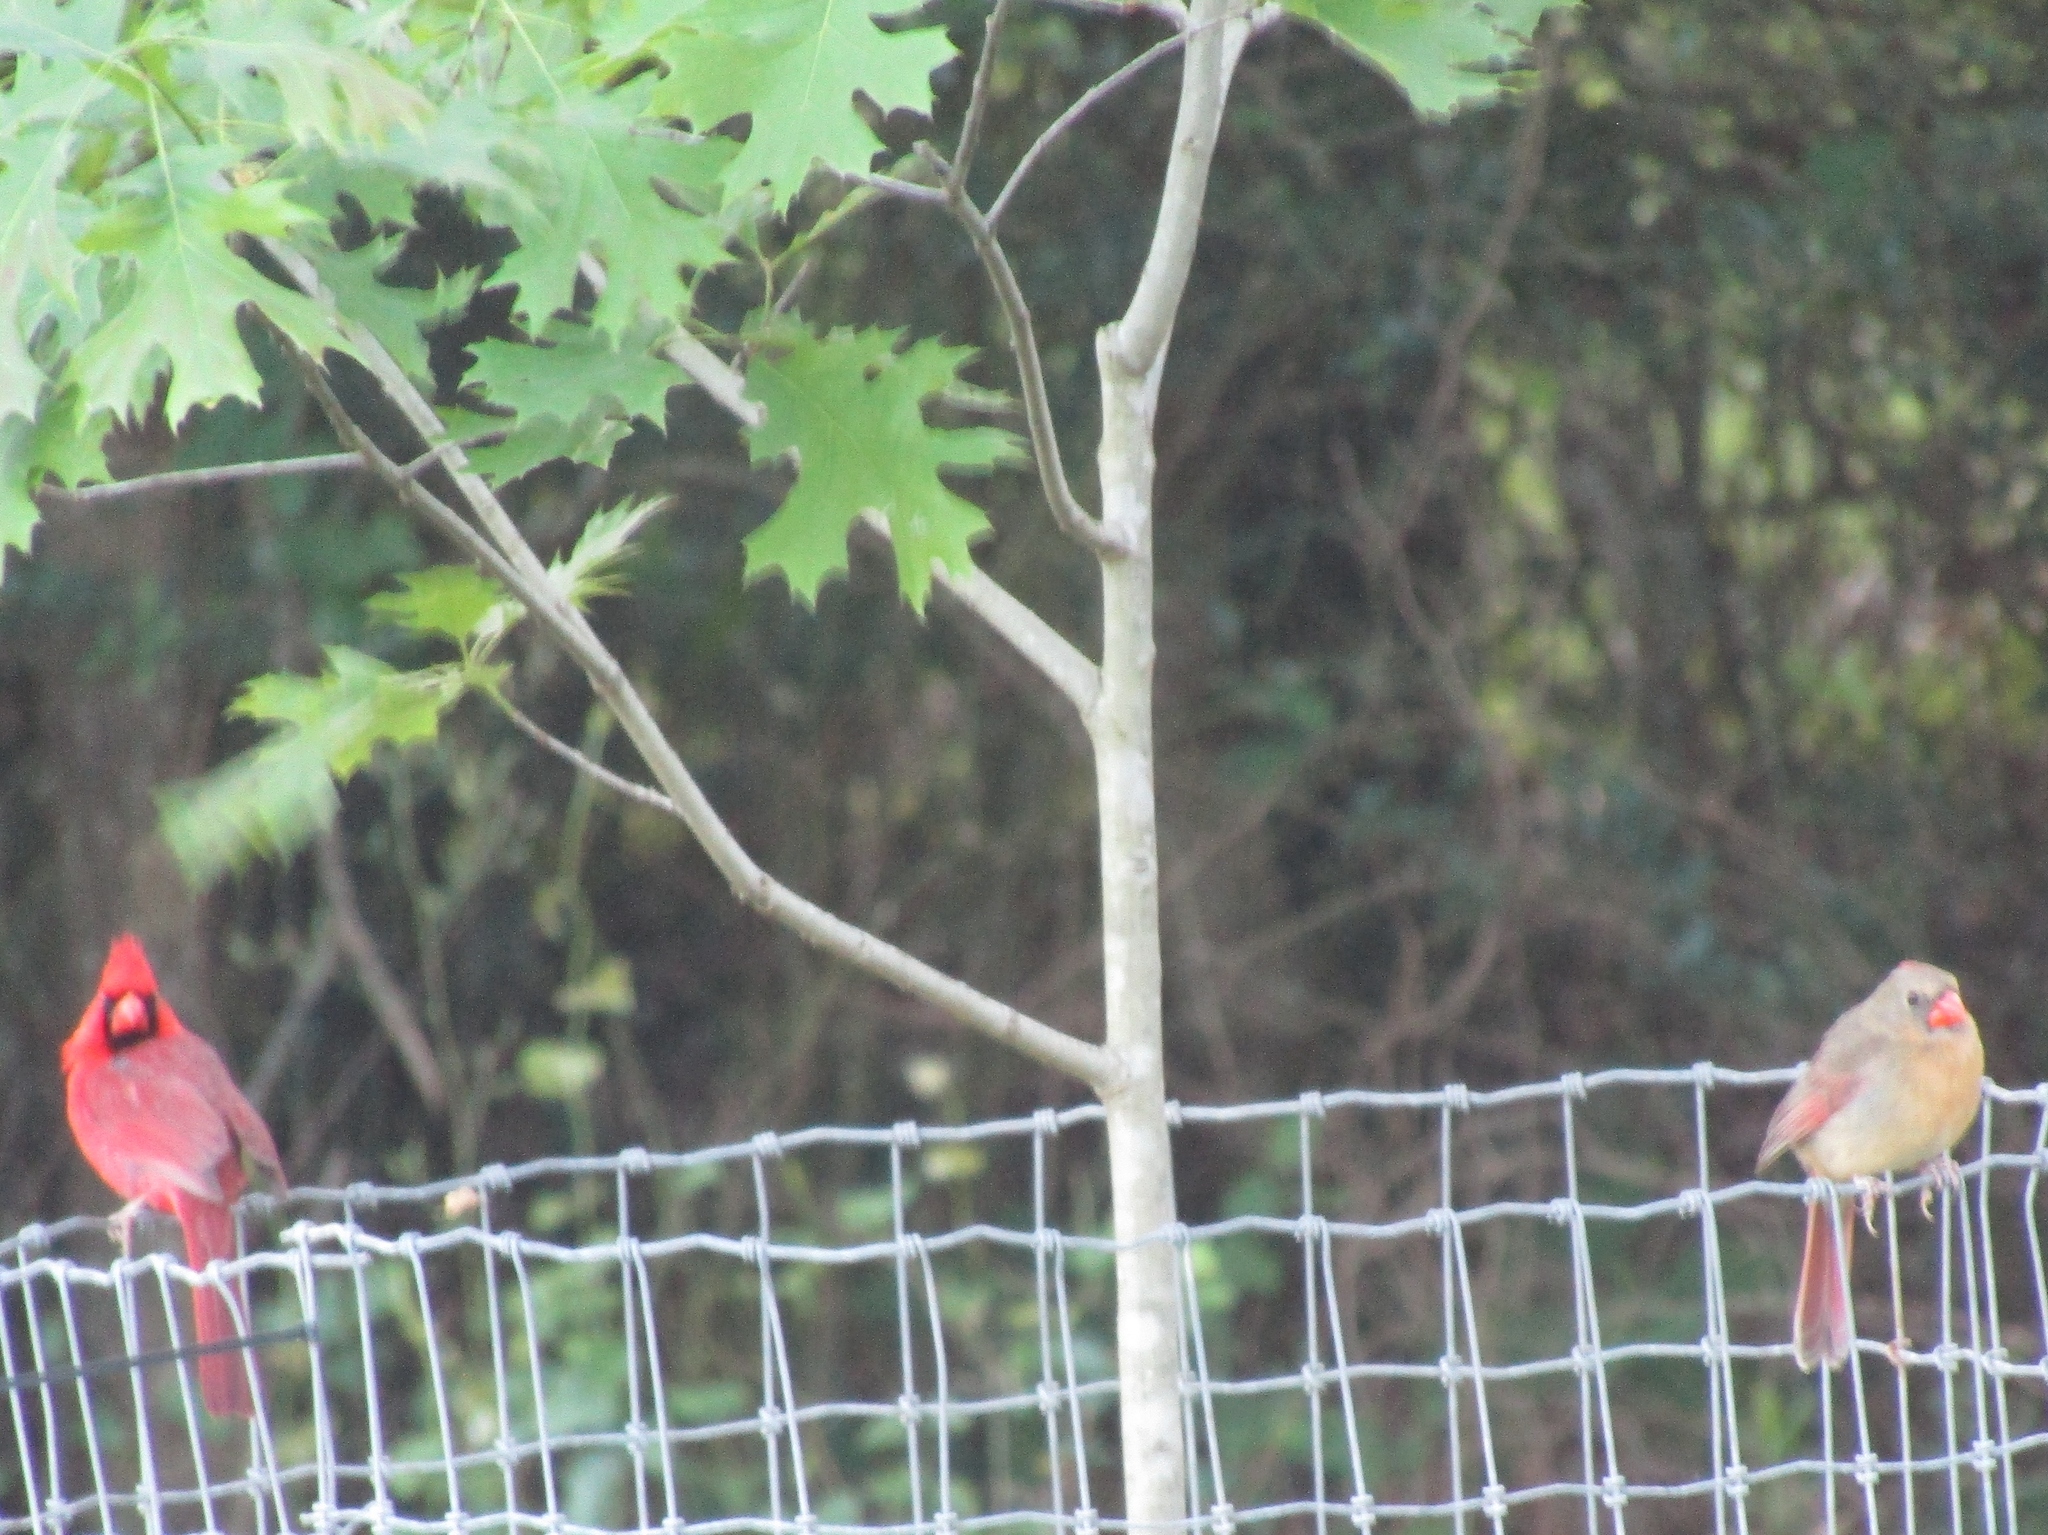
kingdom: Animalia
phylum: Chordata
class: Aves
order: Passeriformes
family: Cardinalidae
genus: Cardinalis
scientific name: Cardinalis cardinalis
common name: Northern cardinal
